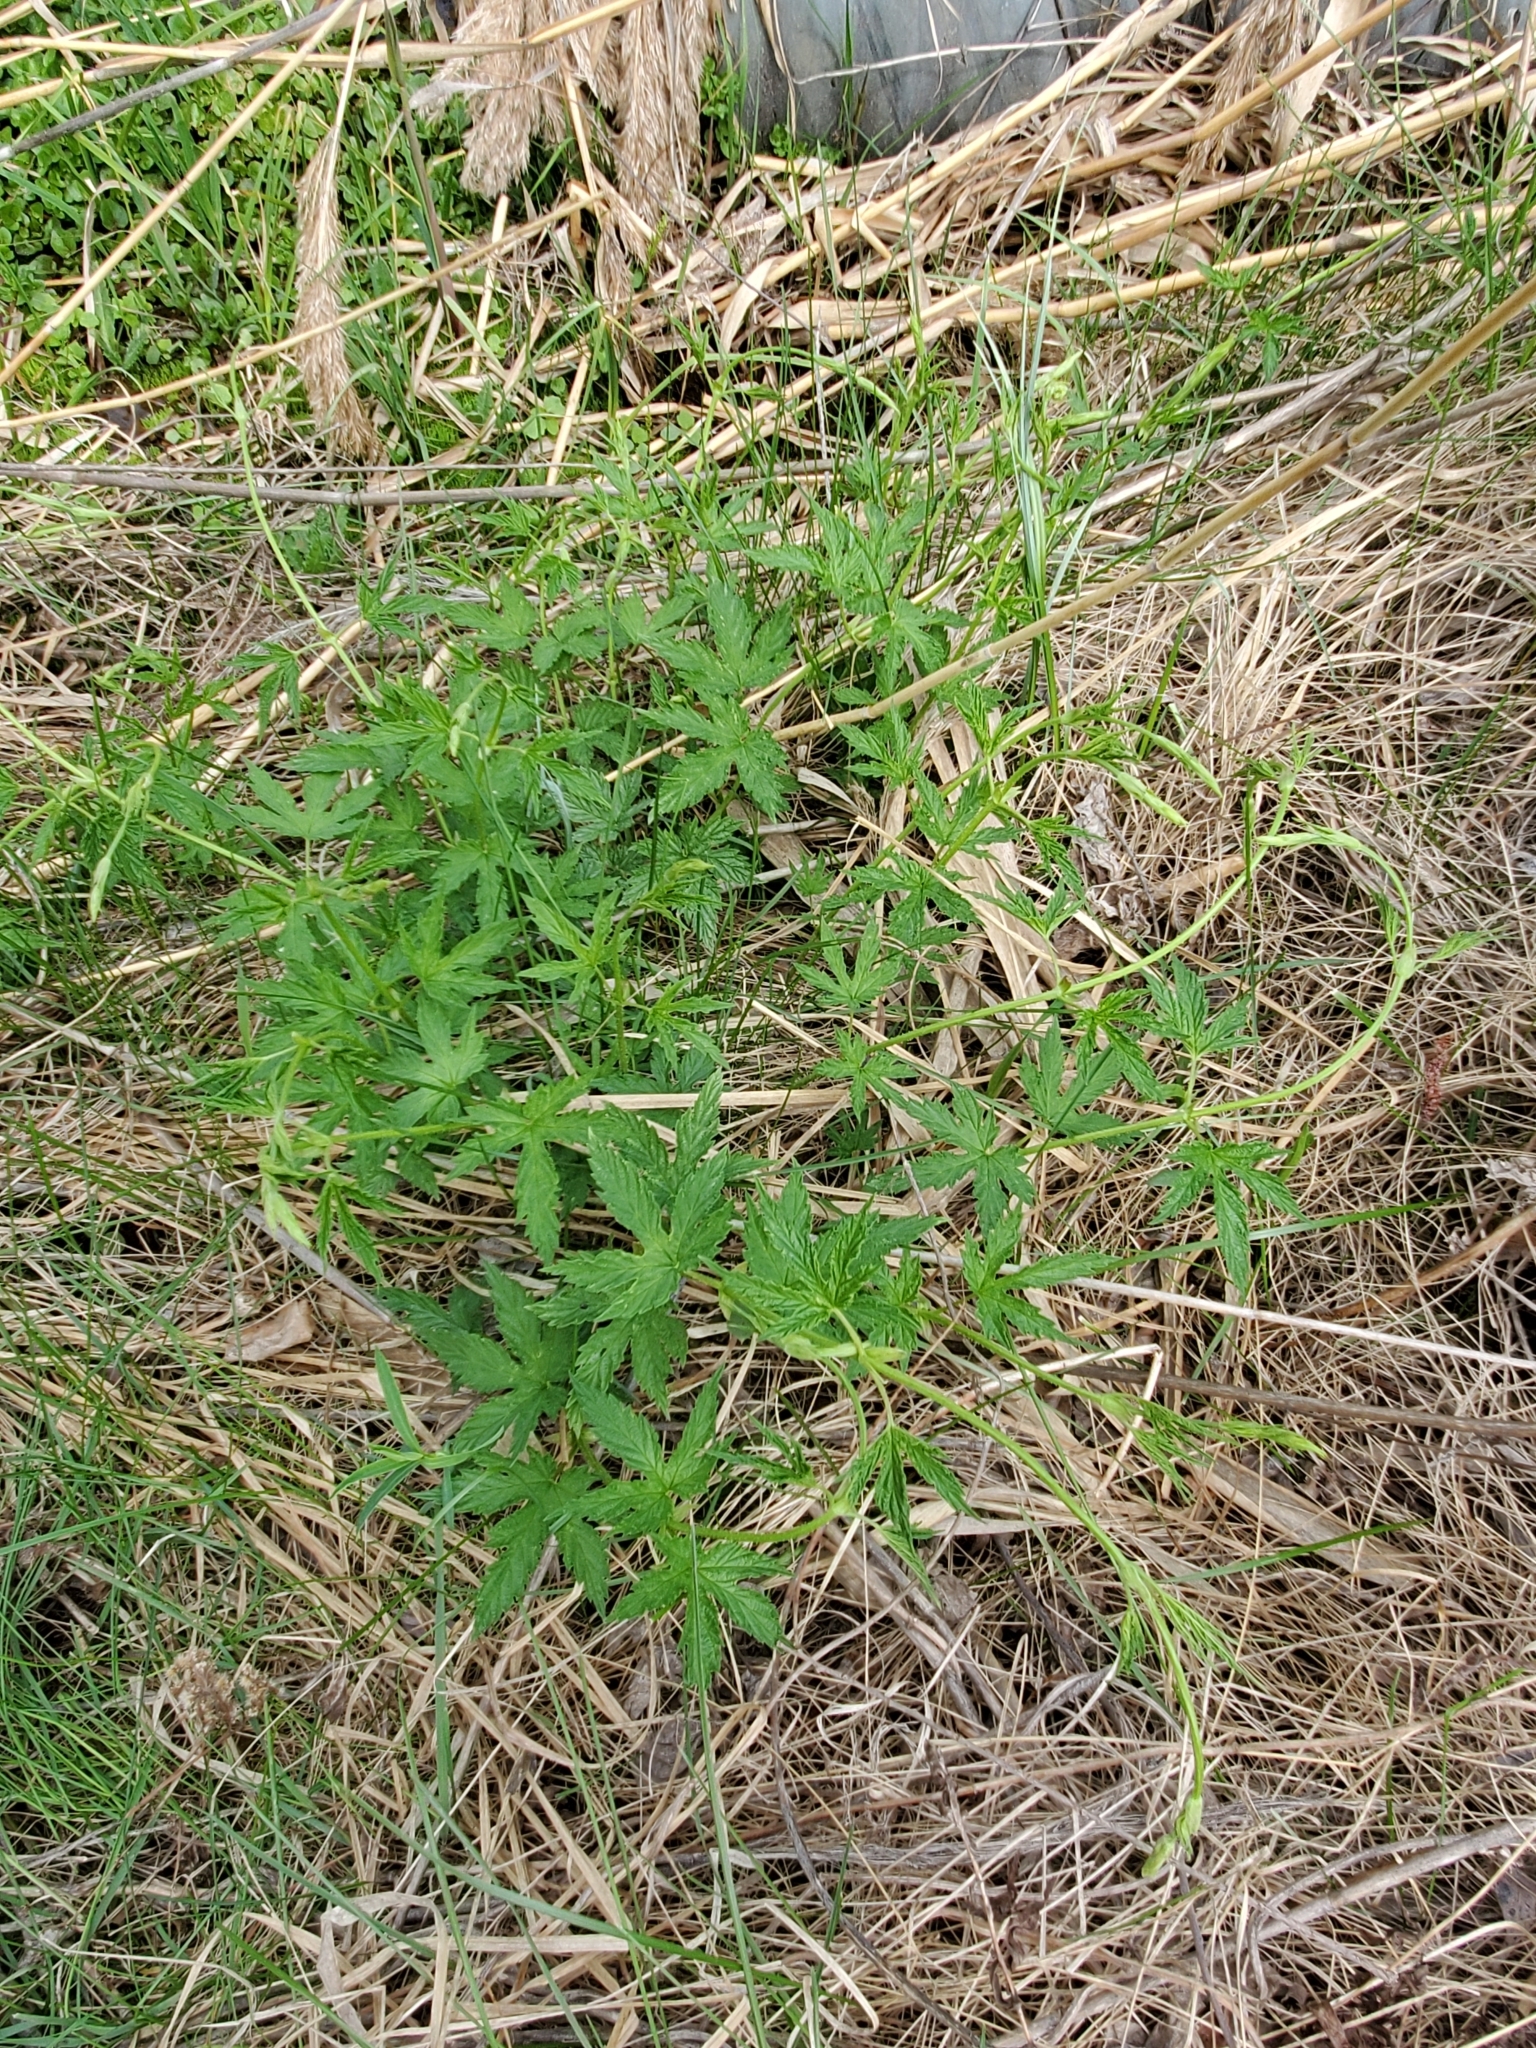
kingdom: Plantae
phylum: Tracheophyta
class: Magnoliopsida
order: Rosales
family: Cannabaceae
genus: Humulus
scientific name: Humulus lupulus
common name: Hop
